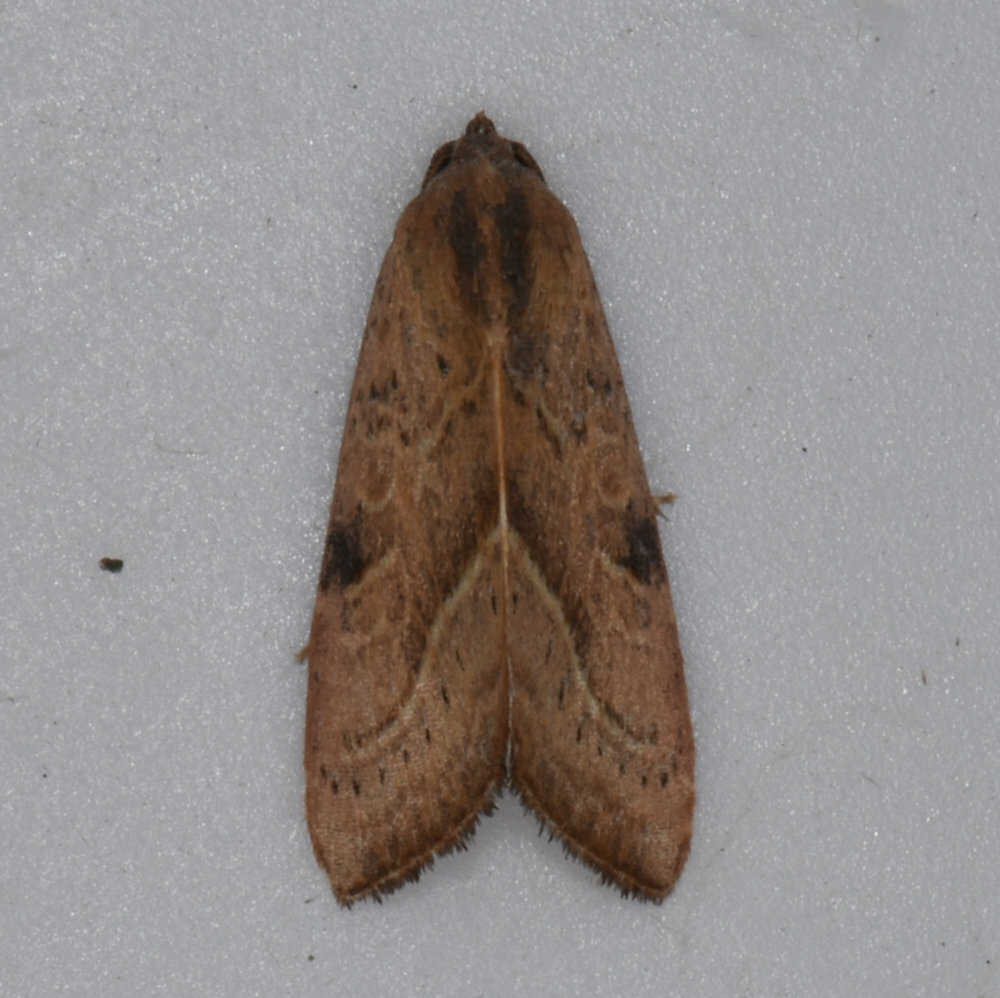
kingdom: Animalia
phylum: Arthropoda
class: Insecta
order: Lepidoptera
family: Noctuidae
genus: Galgula
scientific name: Galgula partita
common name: Wedgeling
